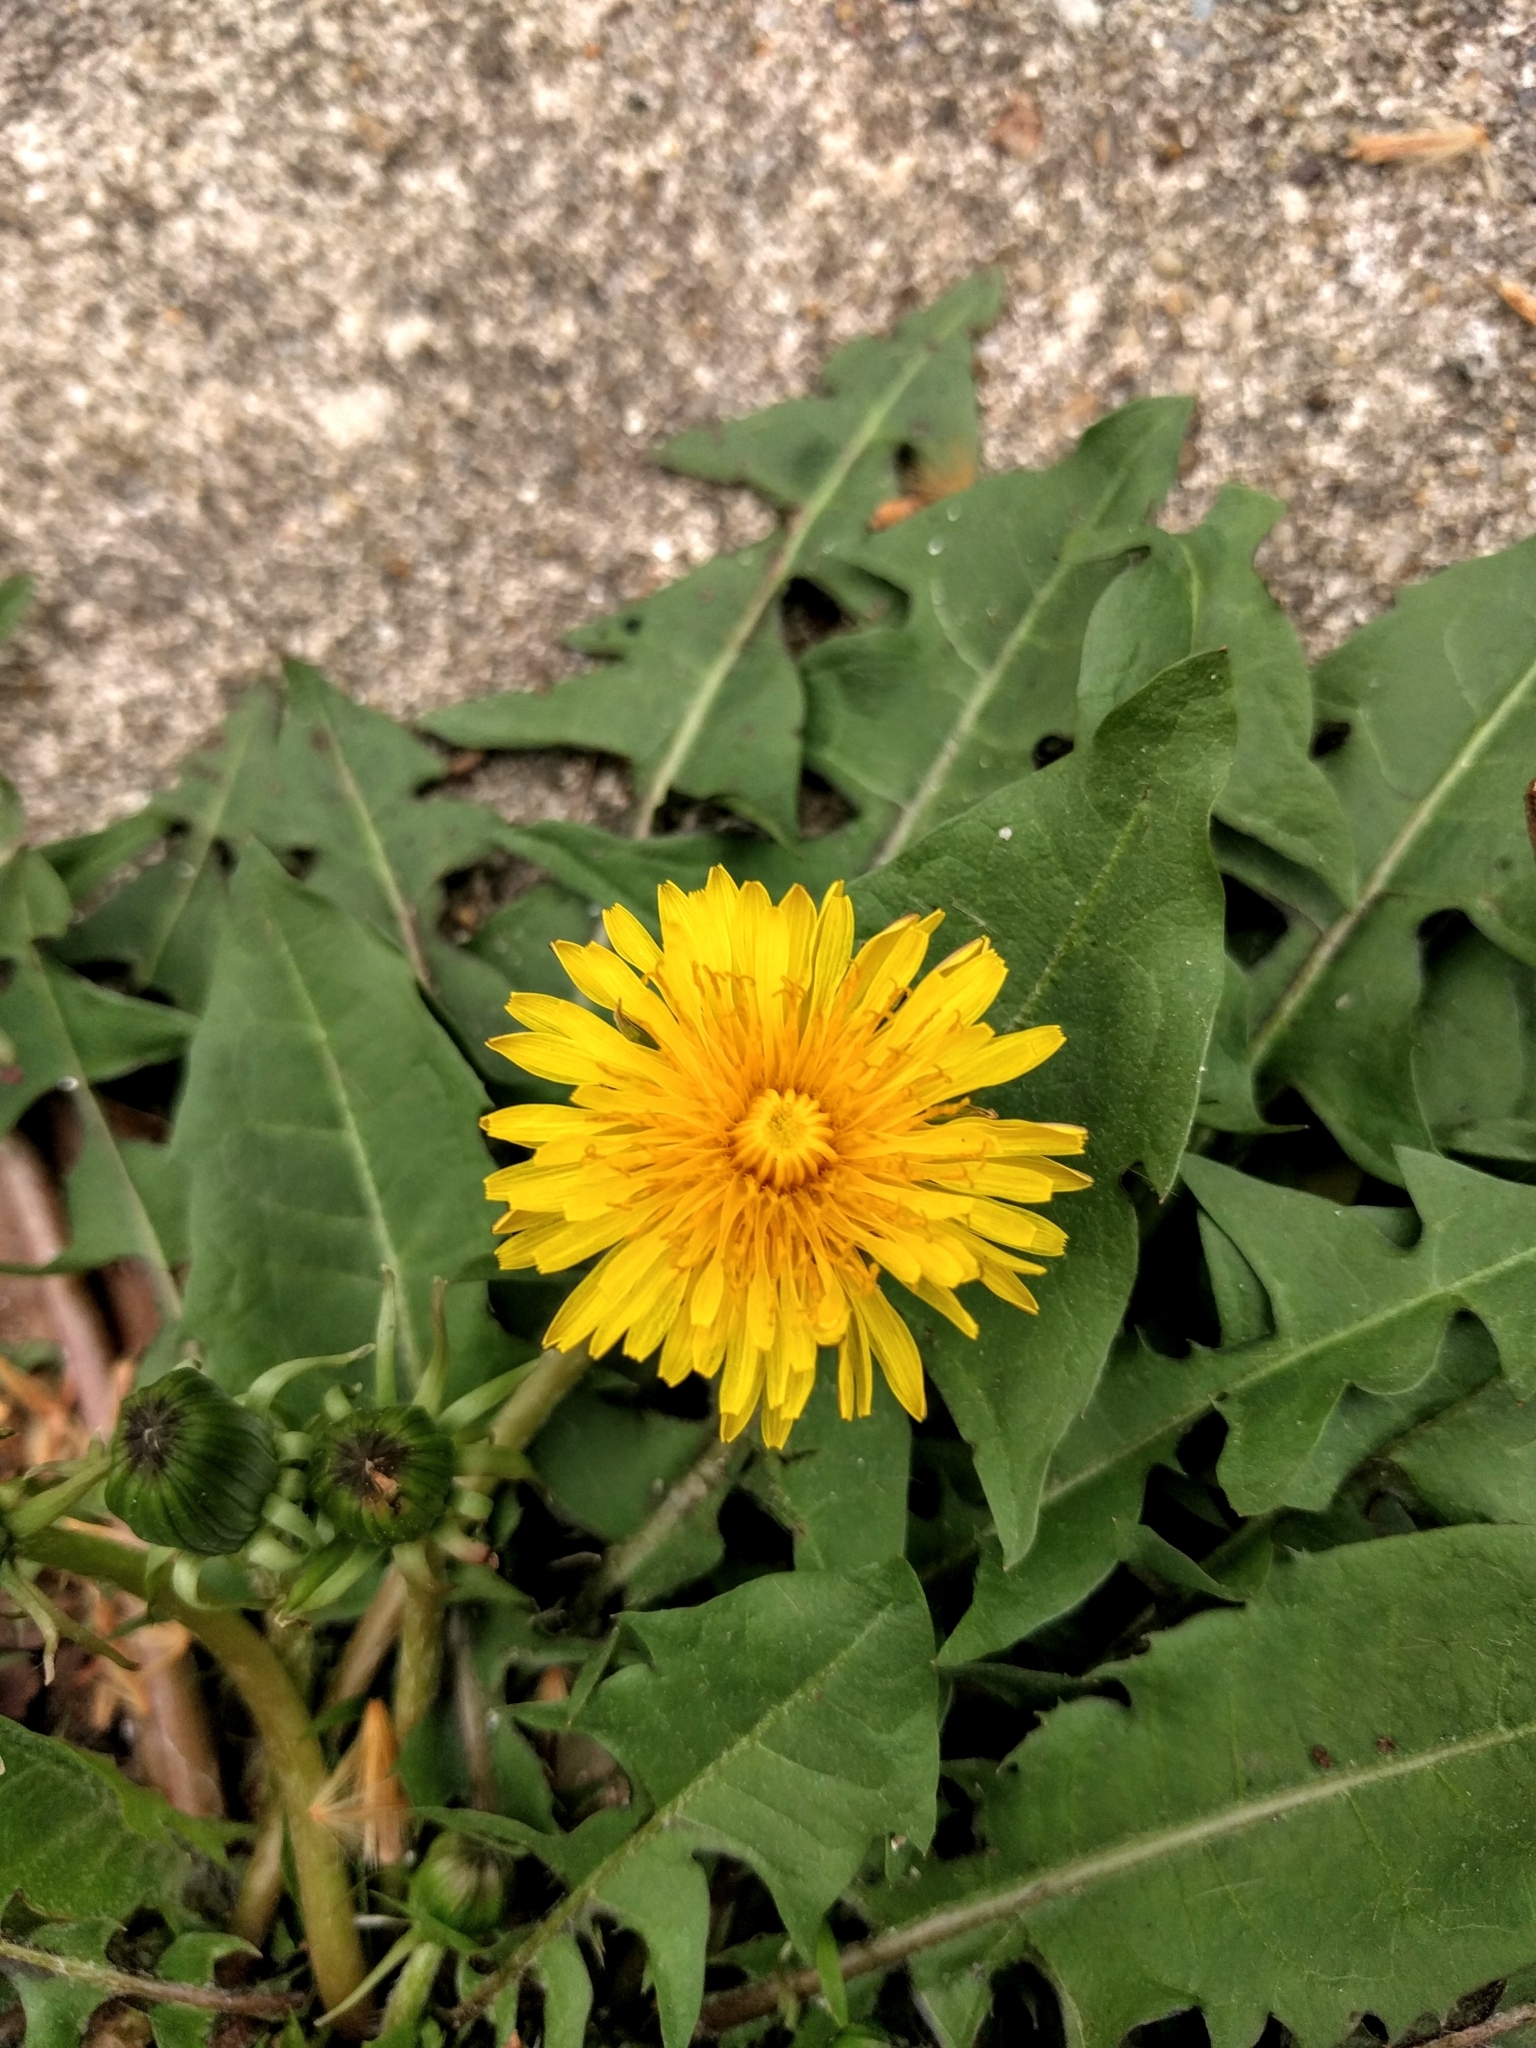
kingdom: Plantae
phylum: Tracheophyta
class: Magnoliopsida
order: Asterales
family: Asteraceae
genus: Taraxacum
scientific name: Taraxacum officinale
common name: Common dandelion
